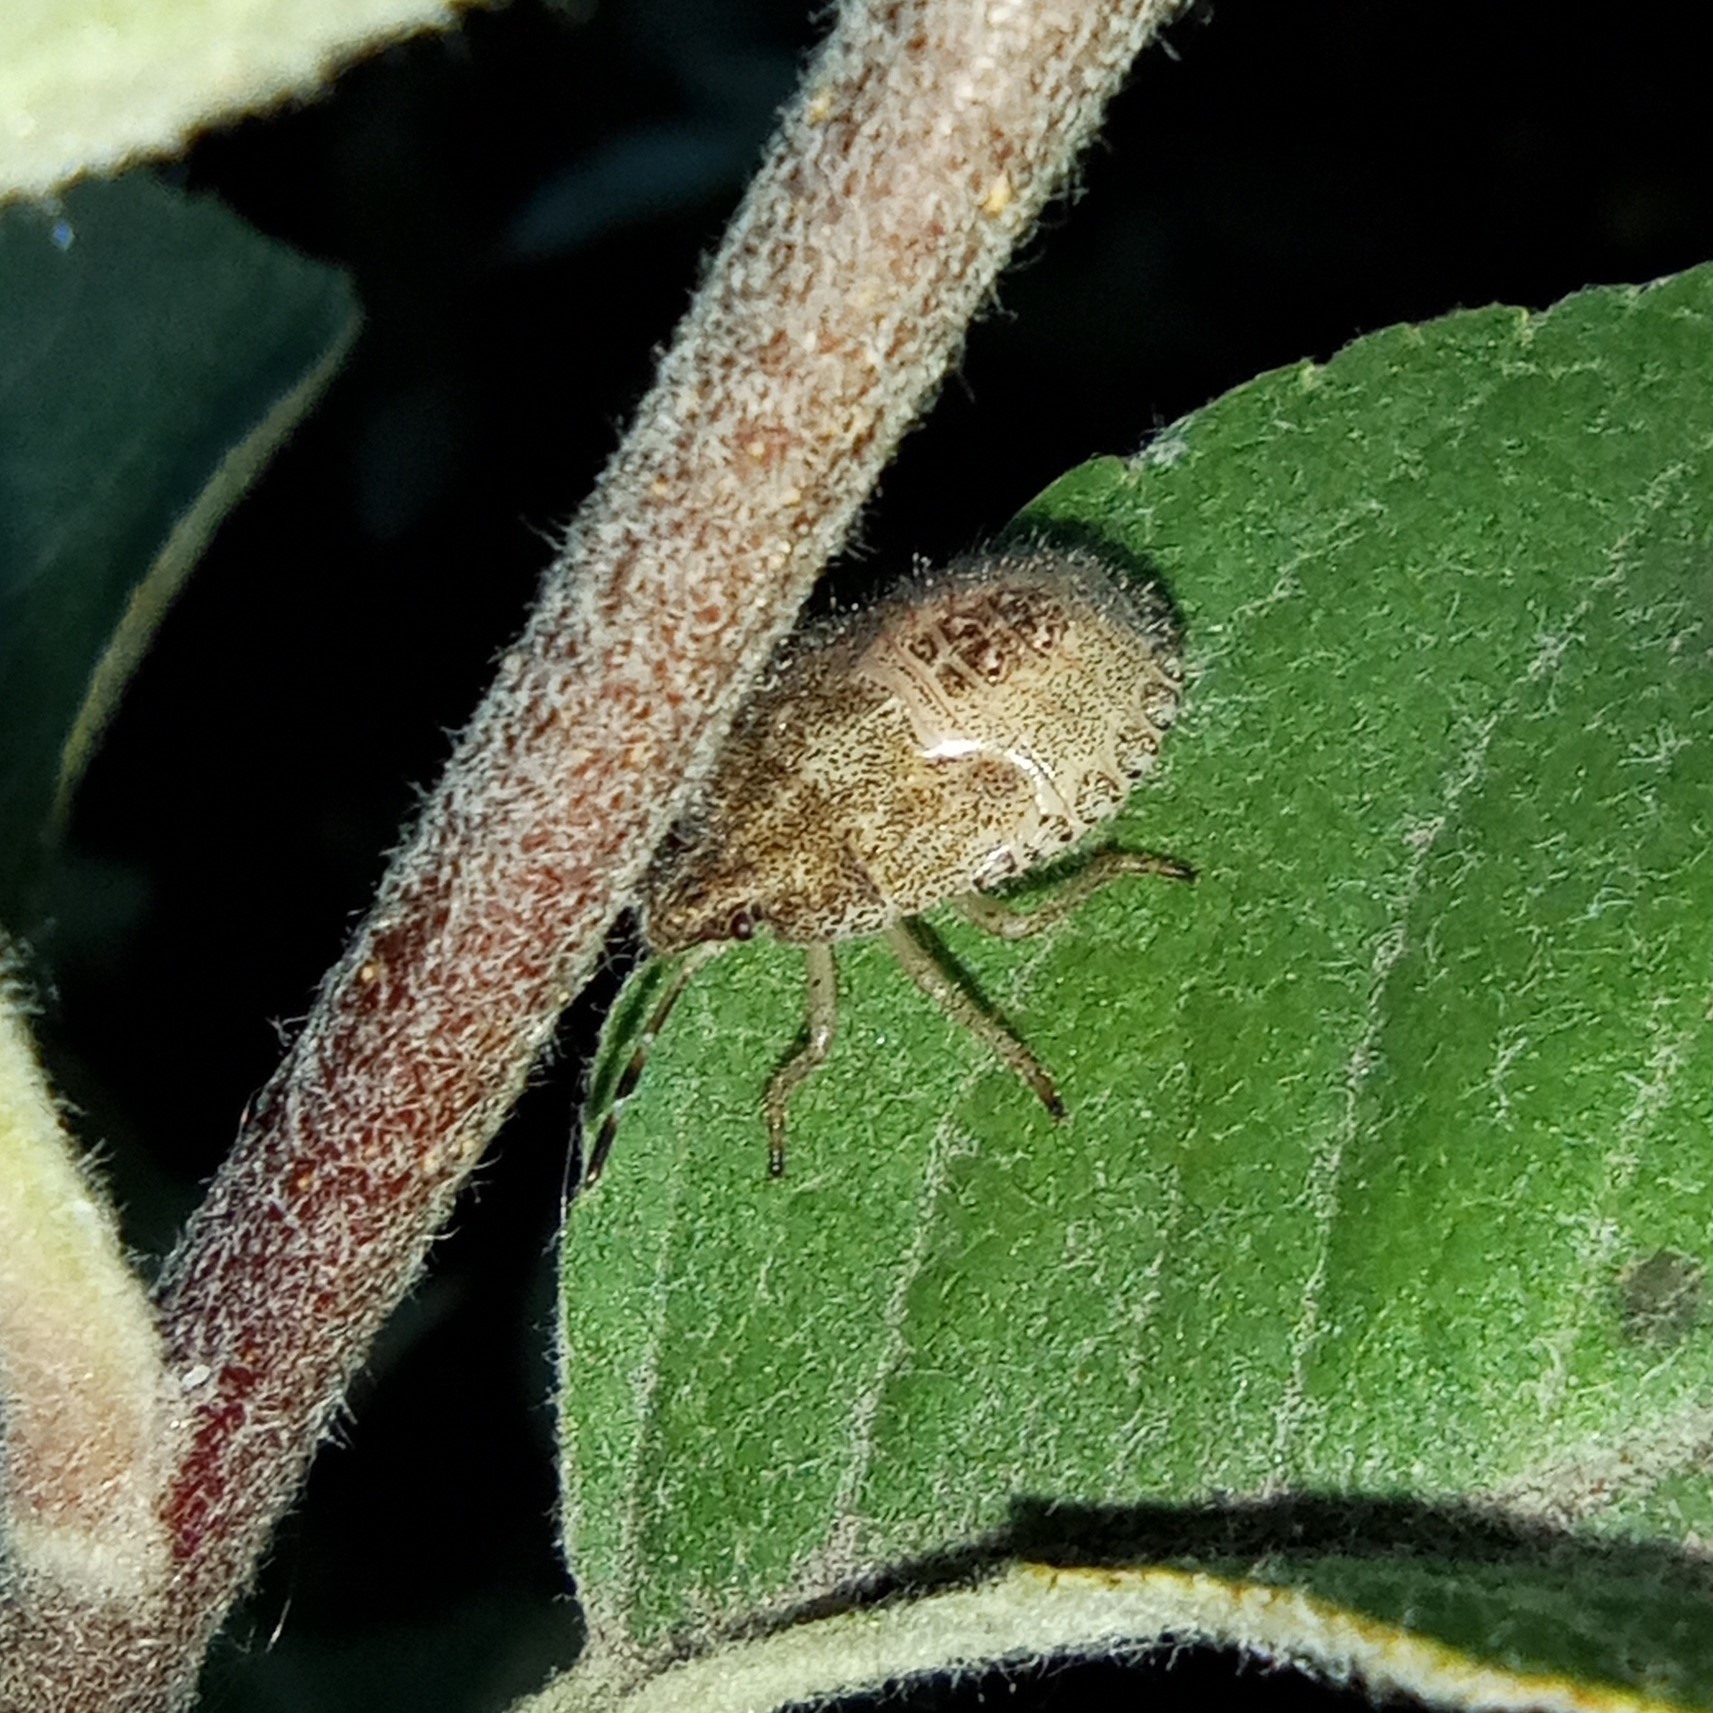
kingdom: Animalia
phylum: Arthropoda
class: Insecta
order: Hemiptera
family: Pentatomidae
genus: Dolycoris
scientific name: Dolycoris baccarum
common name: Sloe bug
